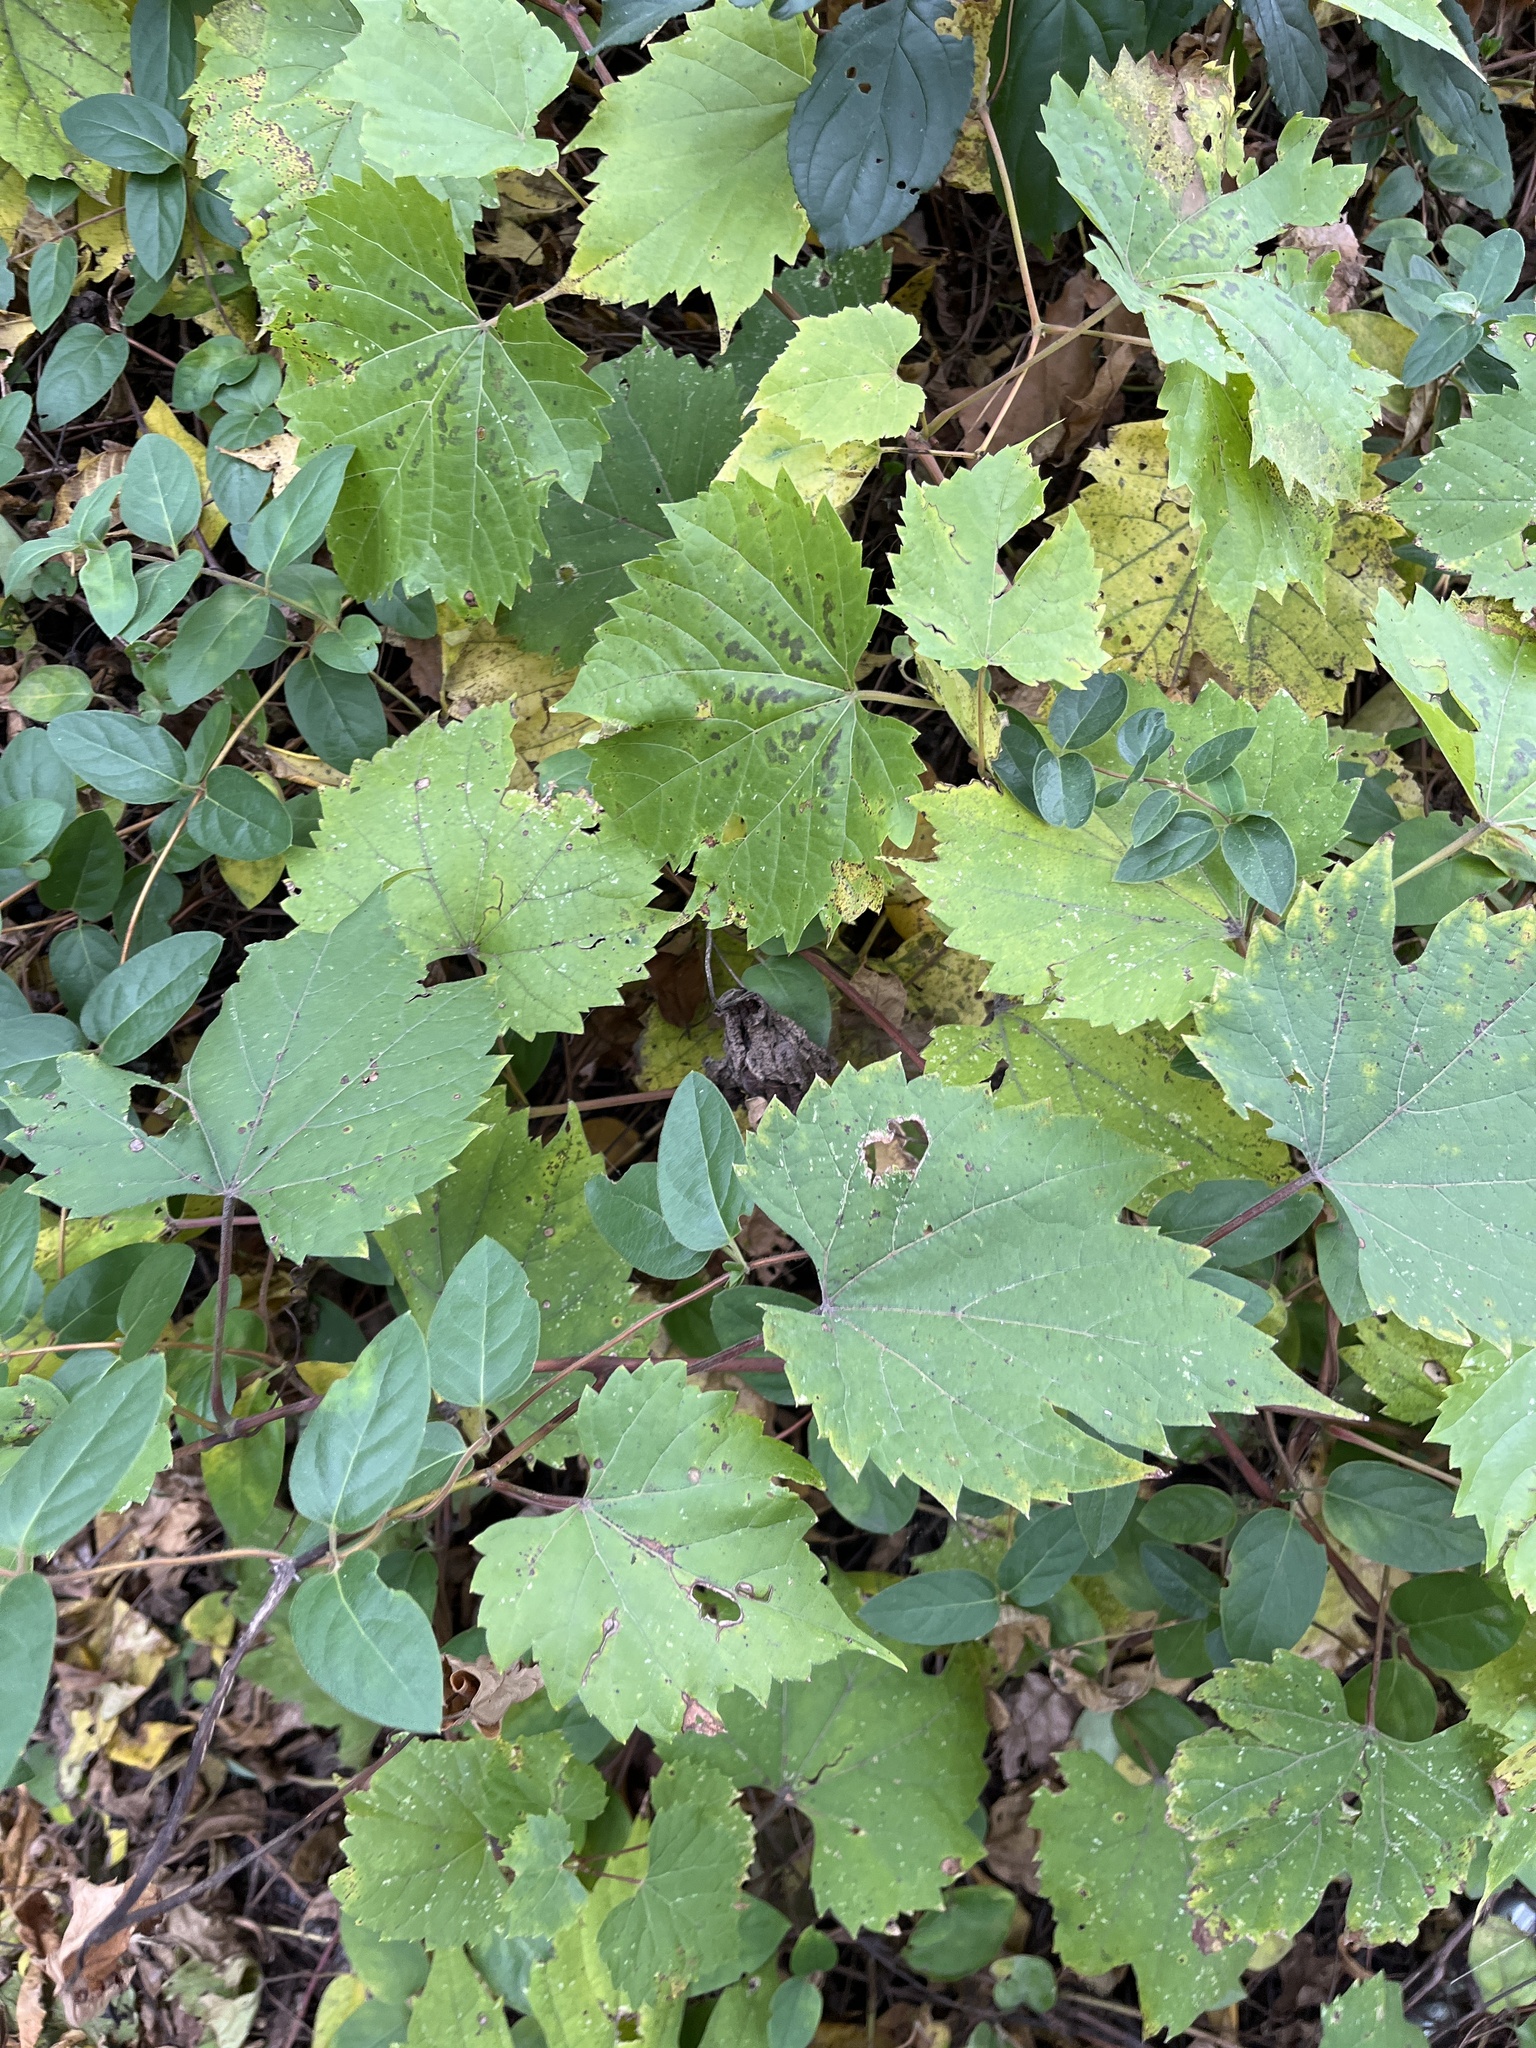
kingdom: Plantae
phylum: Tracheophyta
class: Magnoliopsida
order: Vitales
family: Vitaceae
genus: Vitis
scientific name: Vitis riparia
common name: Frost grape
